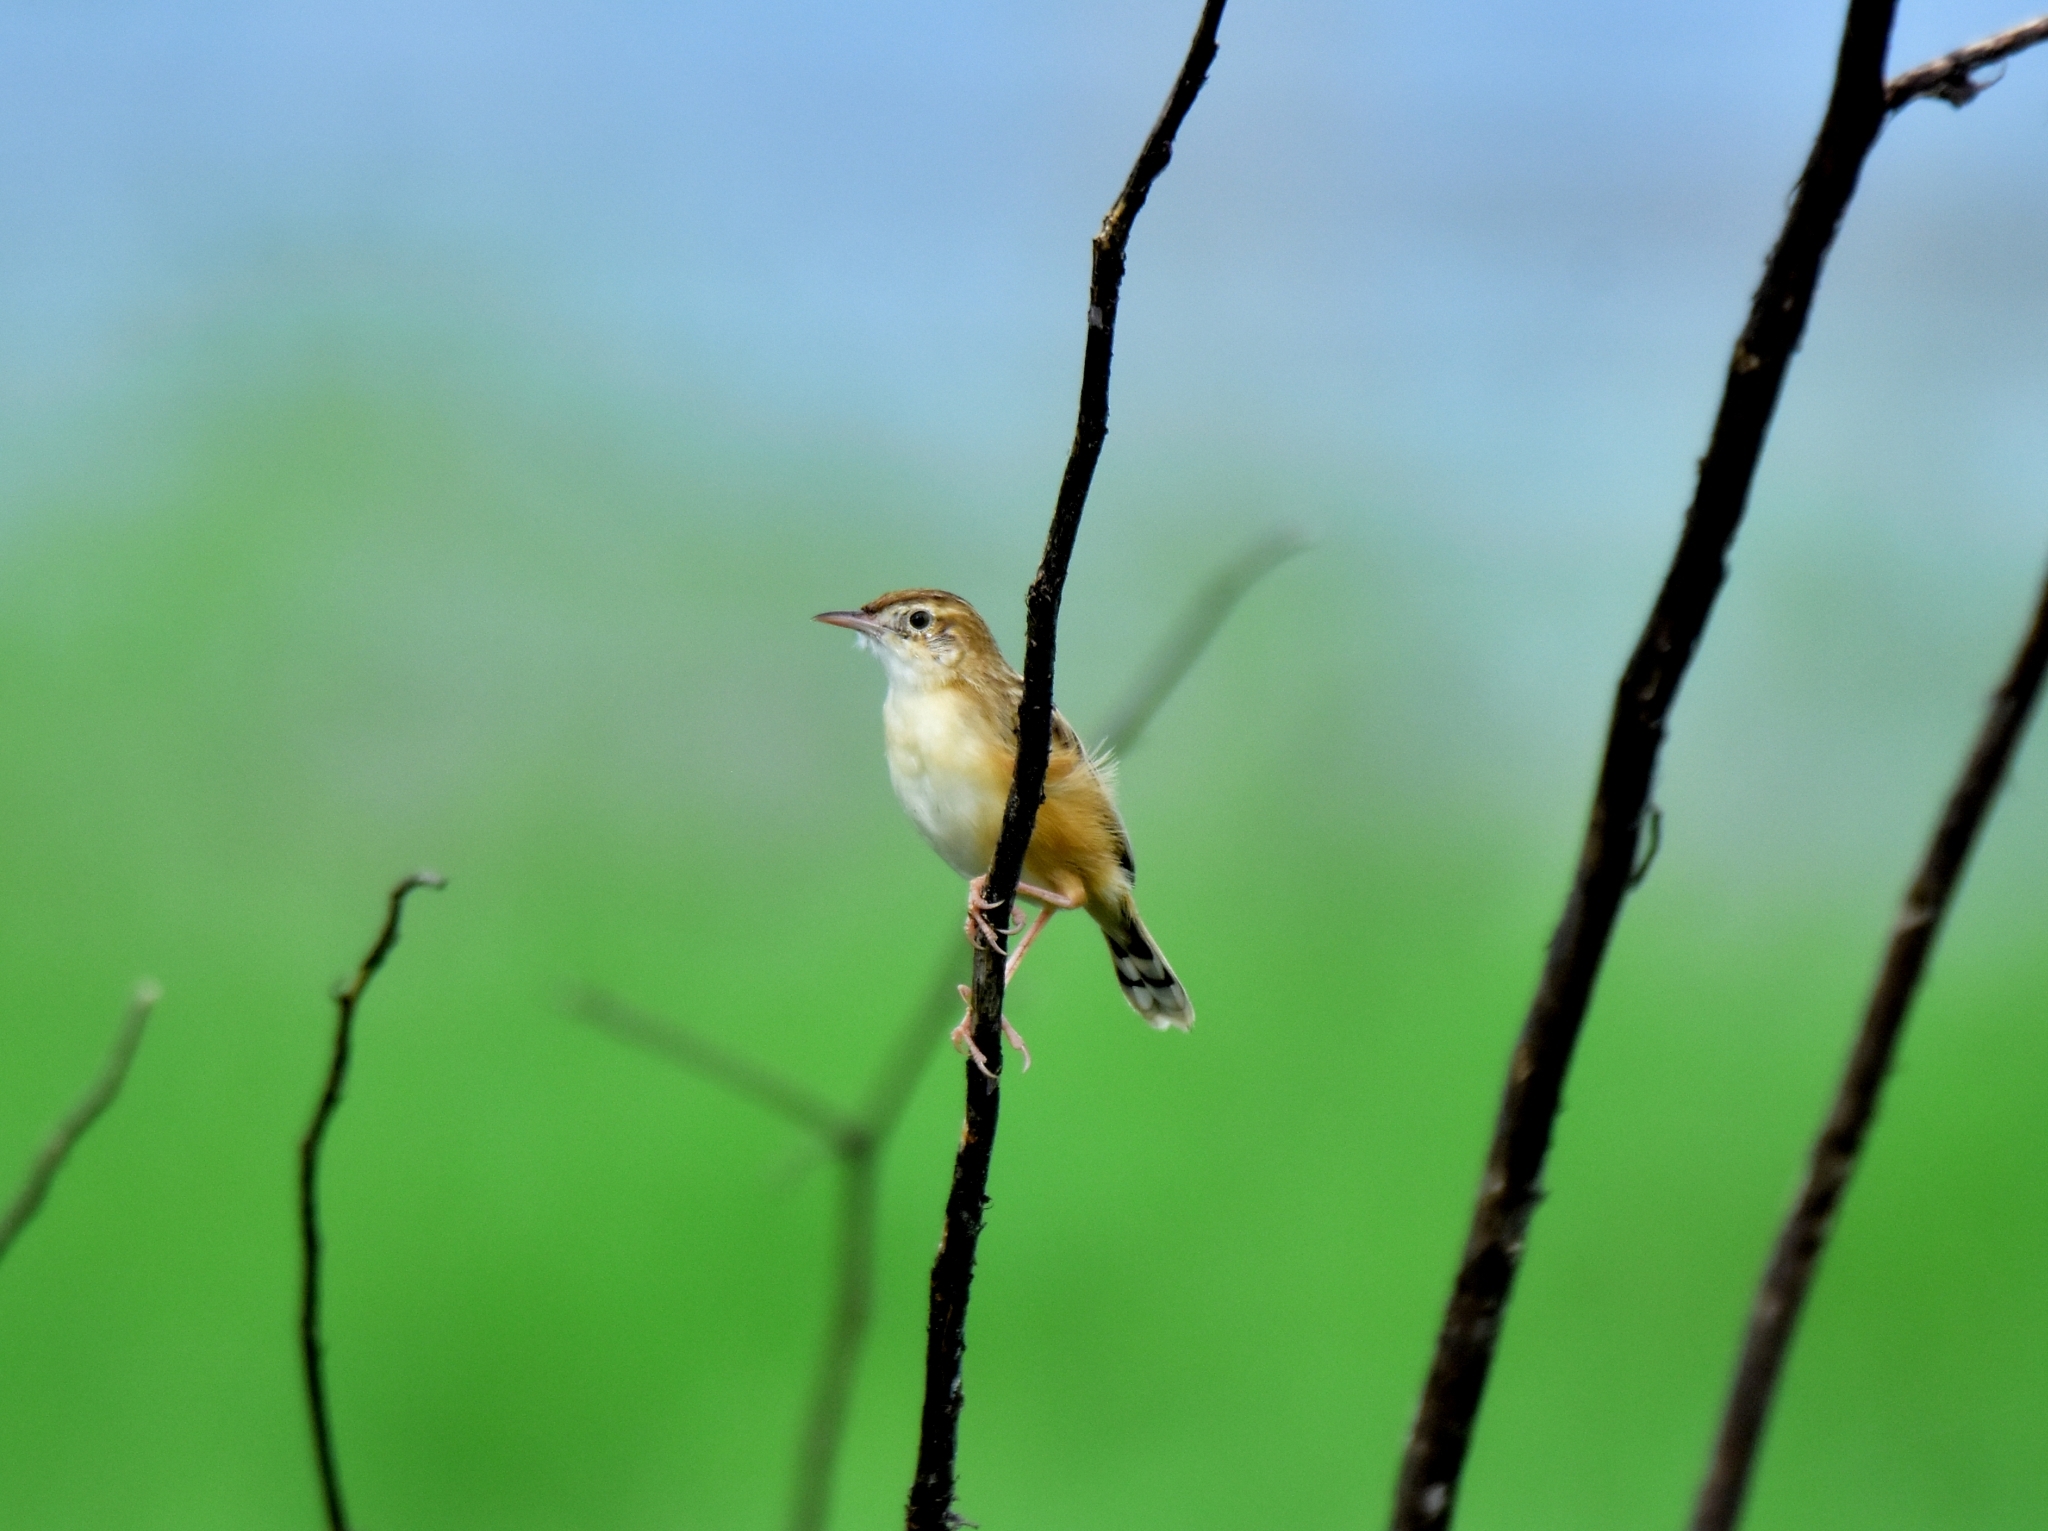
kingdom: Animalia
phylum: Chordata
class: Aves
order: Passeriformes
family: Cisticolidae
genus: Cisticola
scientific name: Cisticola juncidis
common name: Zitting cisticola
